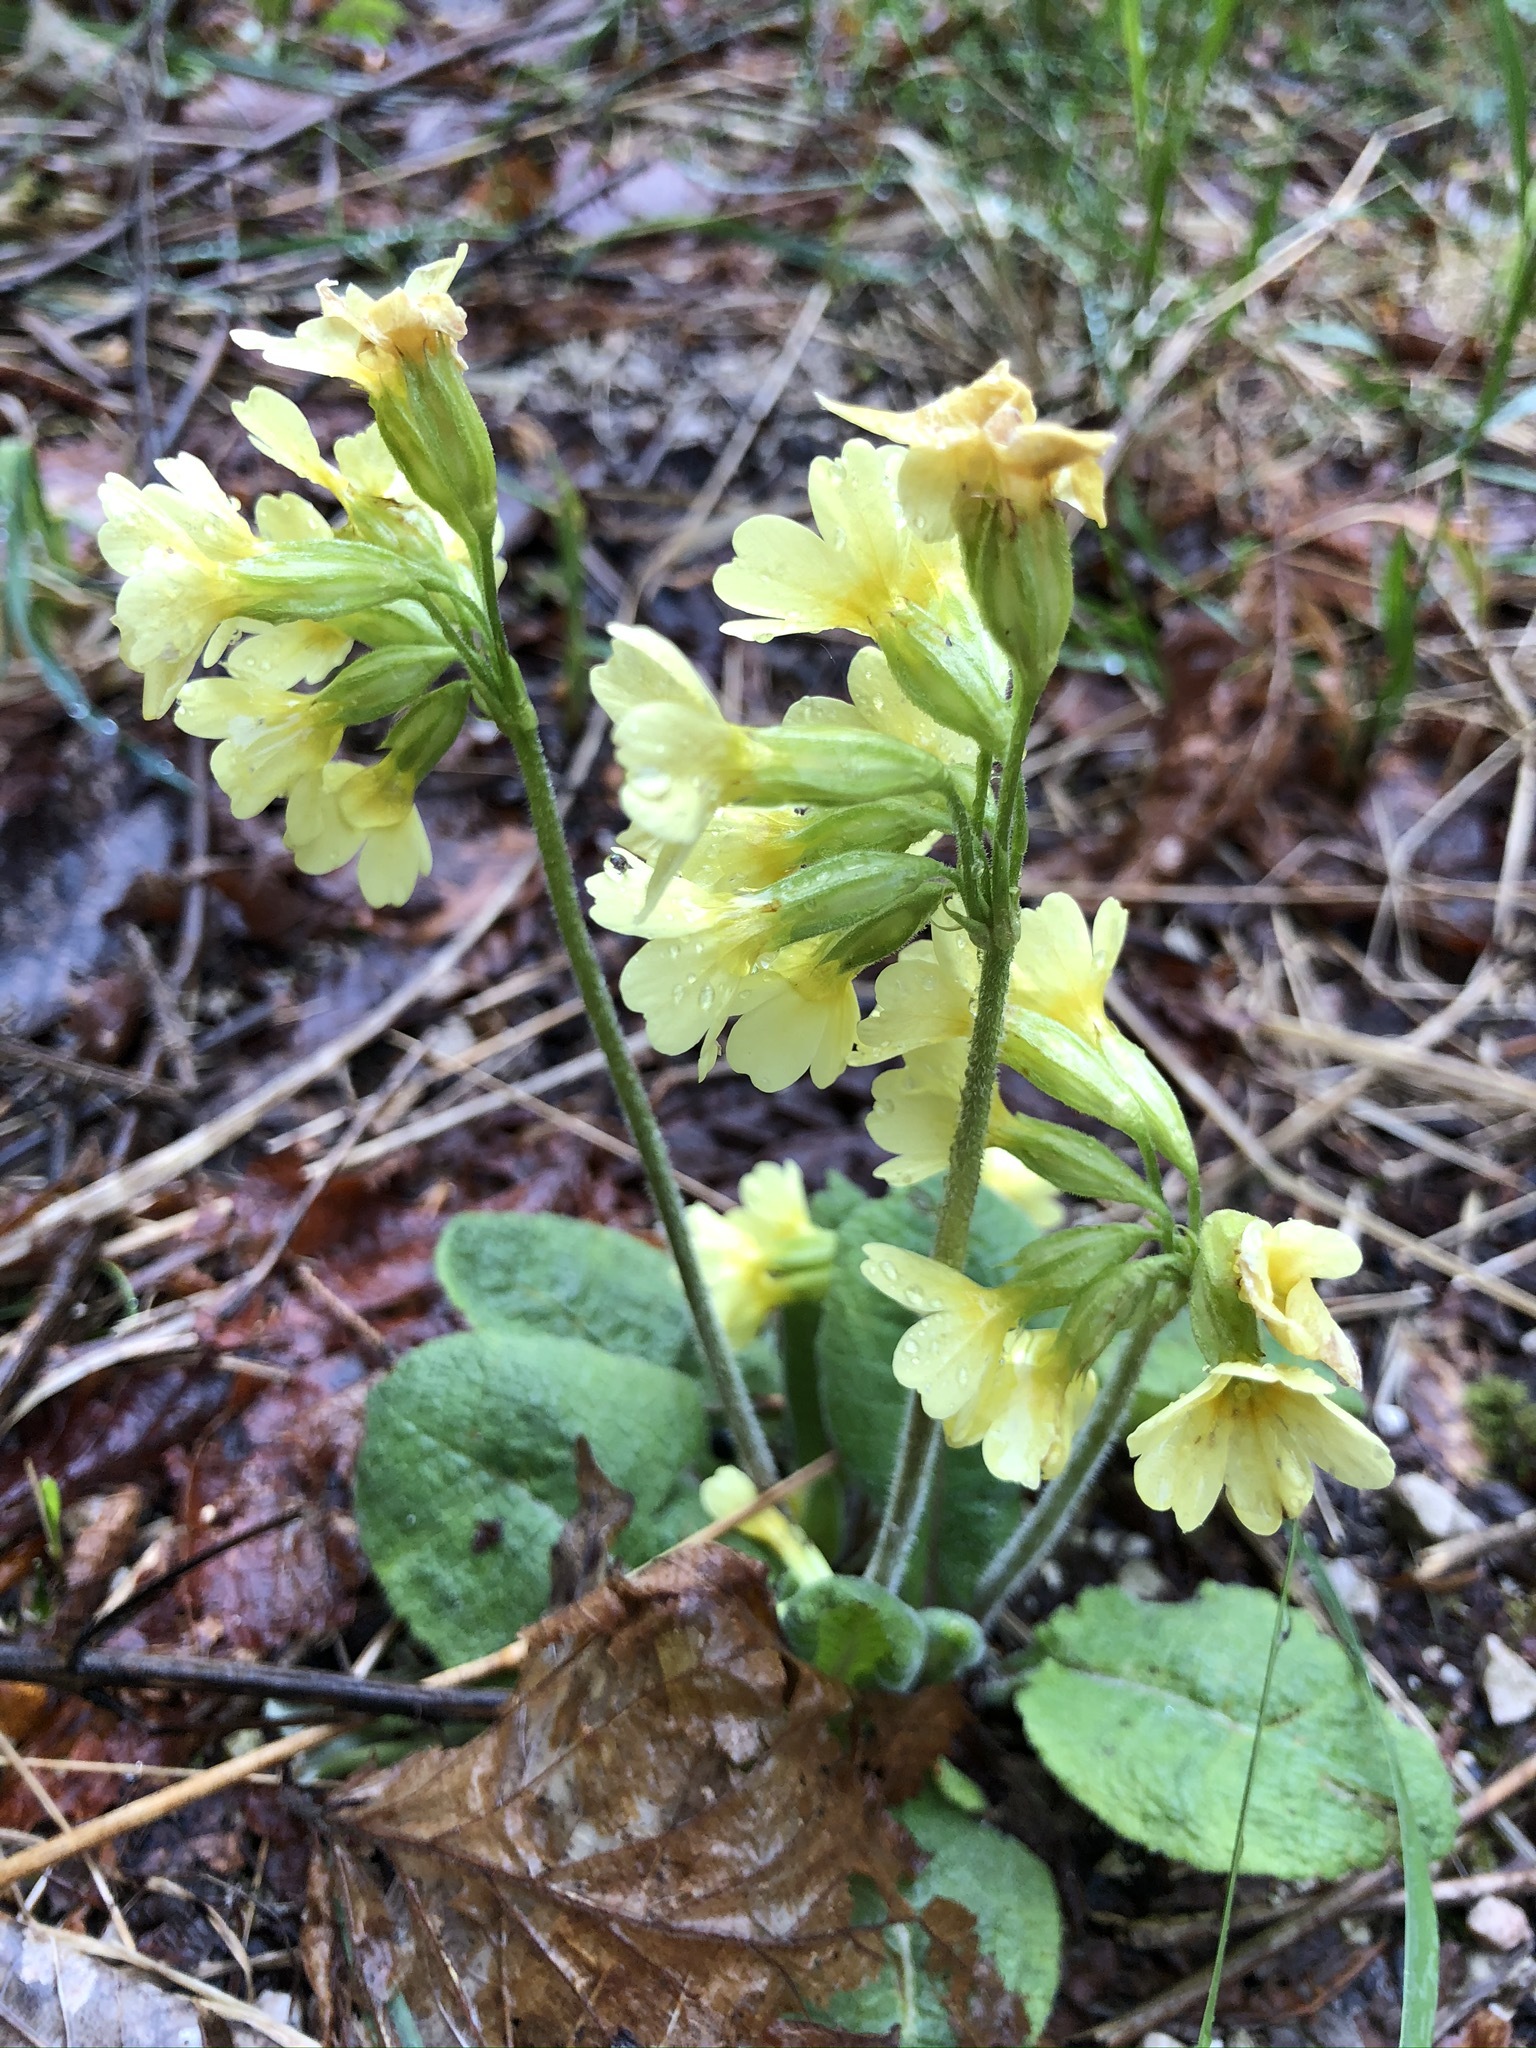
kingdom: Plantae
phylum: Tracheophyta
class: Magnoliopsida
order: Ericales
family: Primulaceae
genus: Primula
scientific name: Primula elatior
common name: Oxlip
